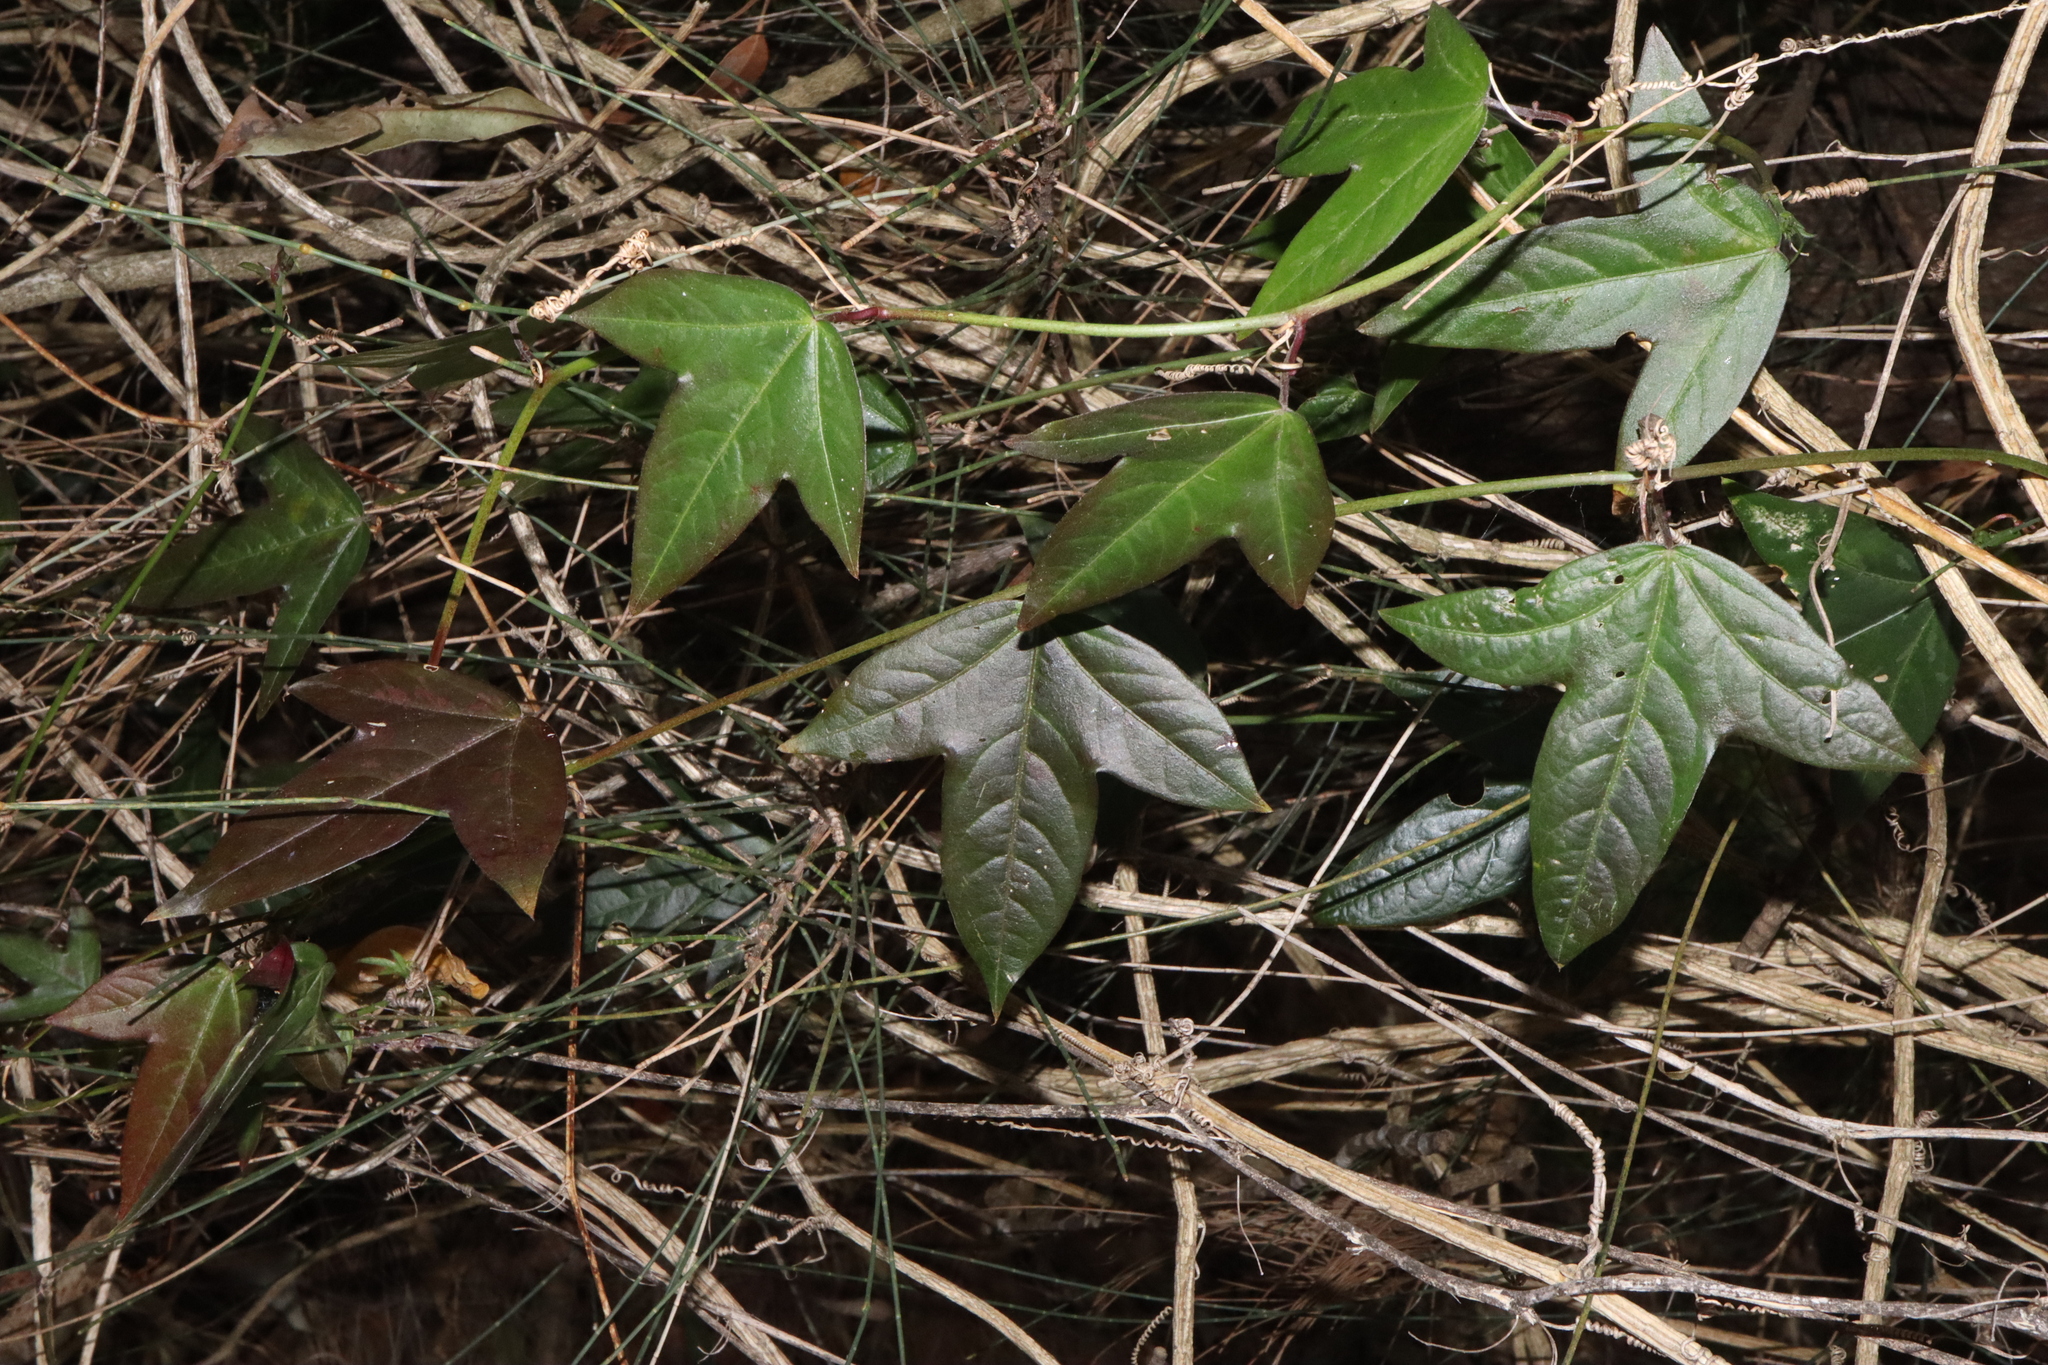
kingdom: Plantae
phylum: Tracheophyta
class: Magnoliopsida
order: Malpighiales
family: Passifloraceae
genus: Passiflora
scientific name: Passiflora suberosa
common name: Wild passionfruit
